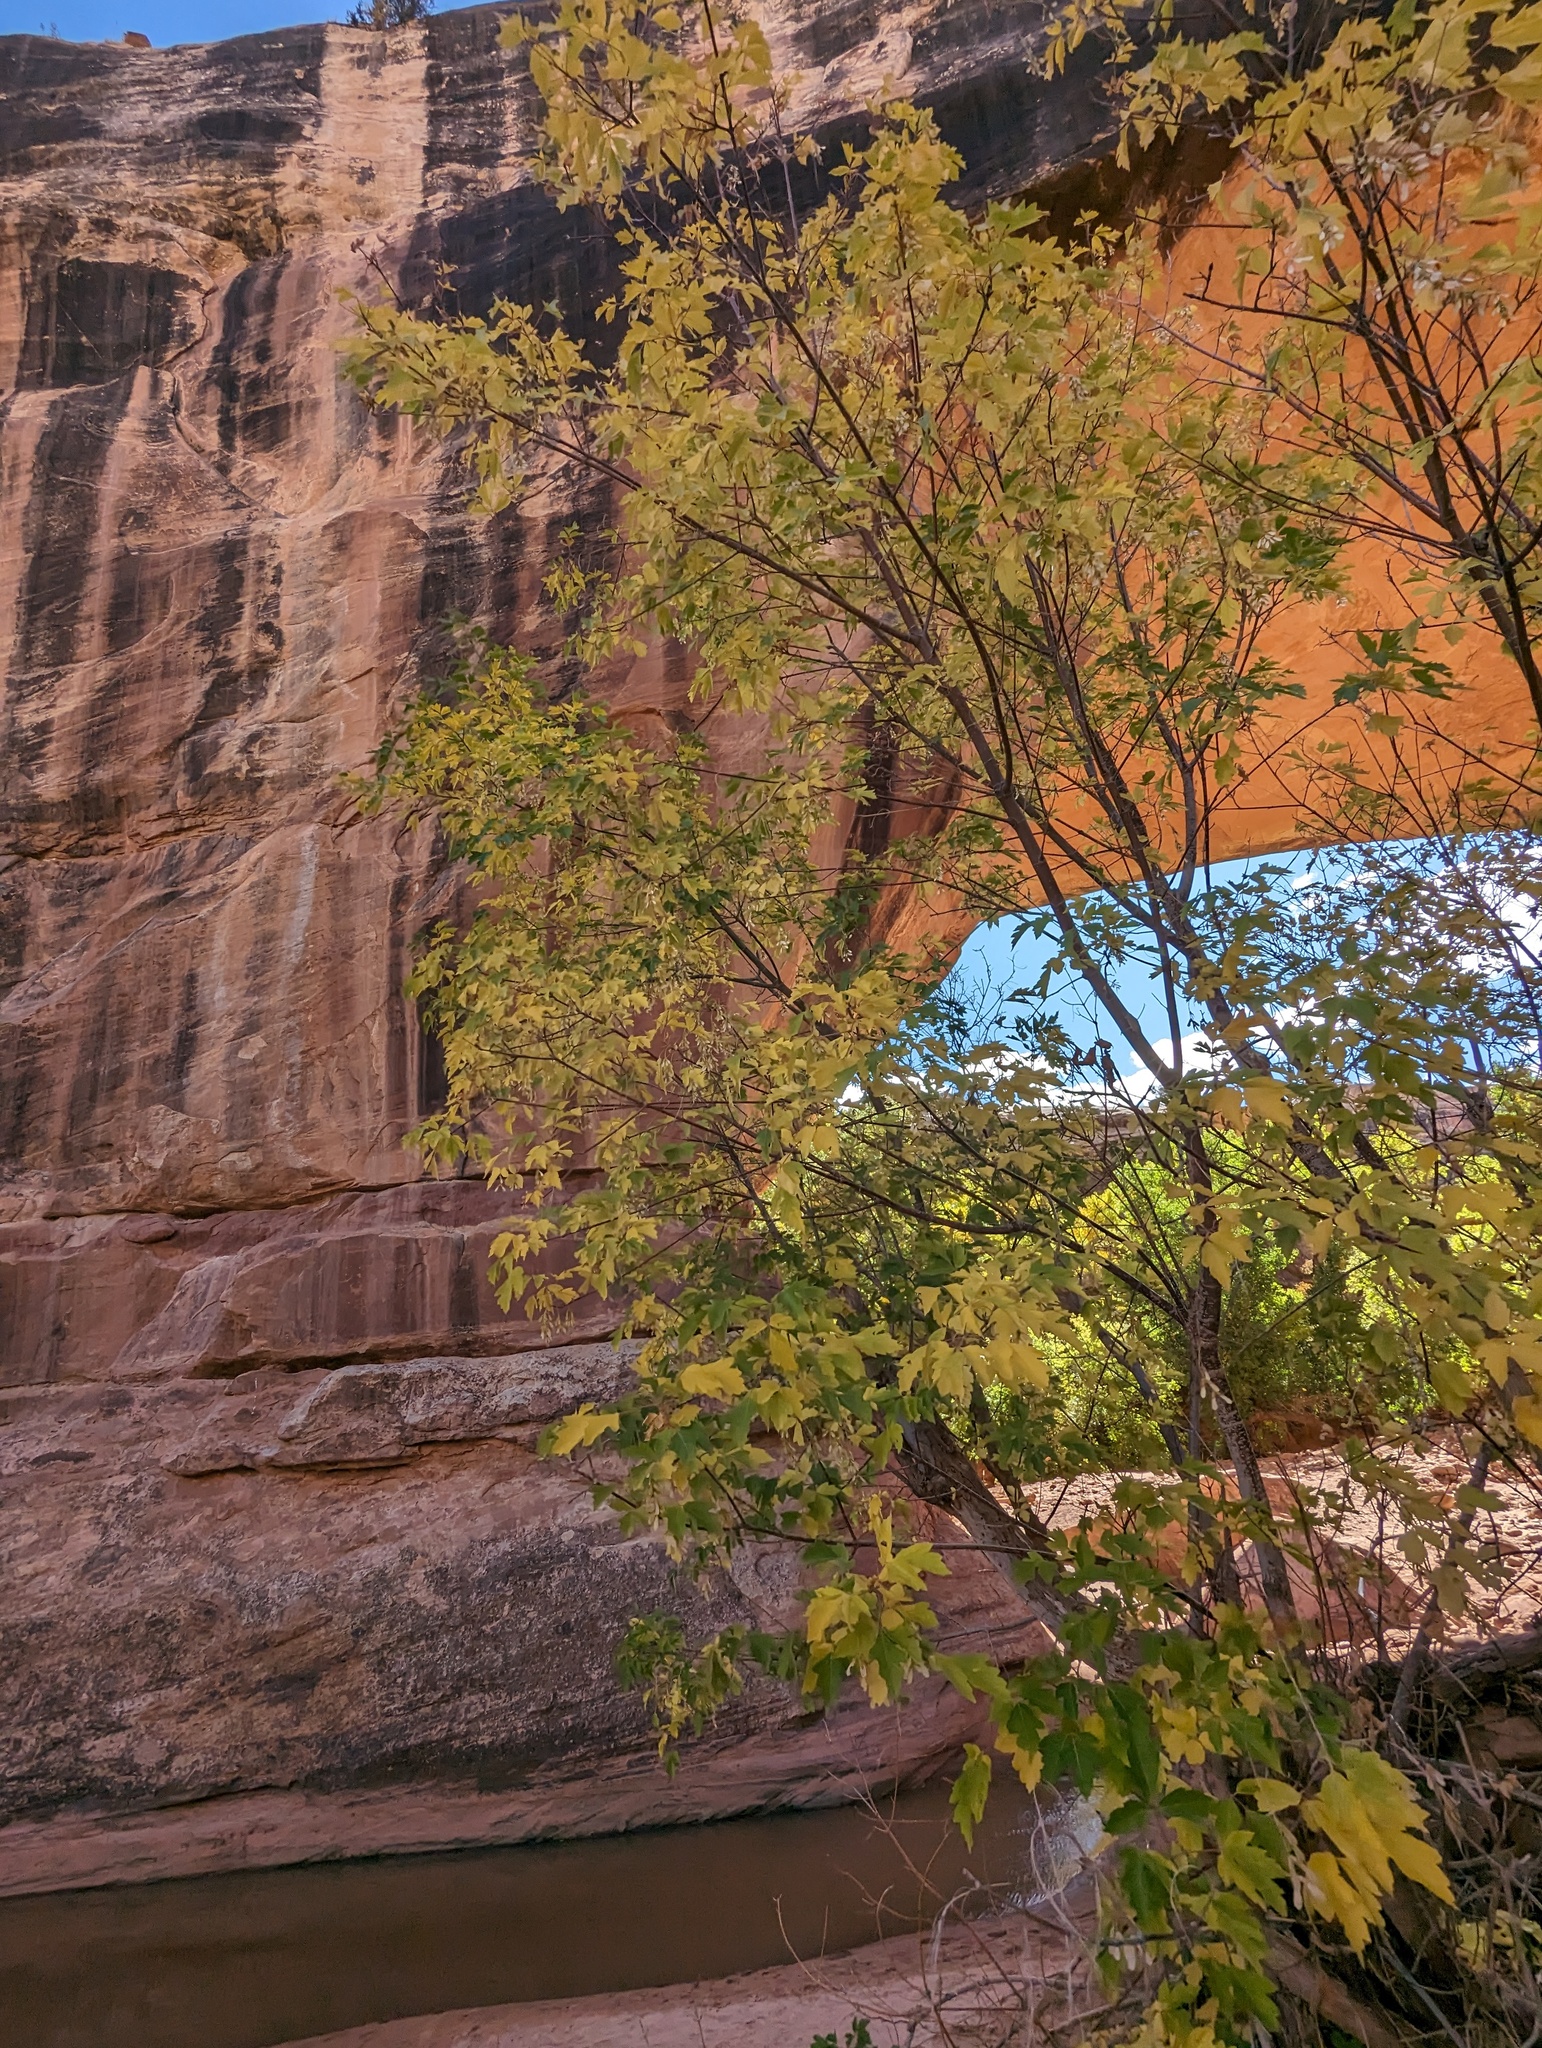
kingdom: Plantae
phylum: Tracheophyta
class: Magnoliopsida
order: Sapindales
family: Sapindaceae
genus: Acer
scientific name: Acer negundo
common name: Ashleaf maple
